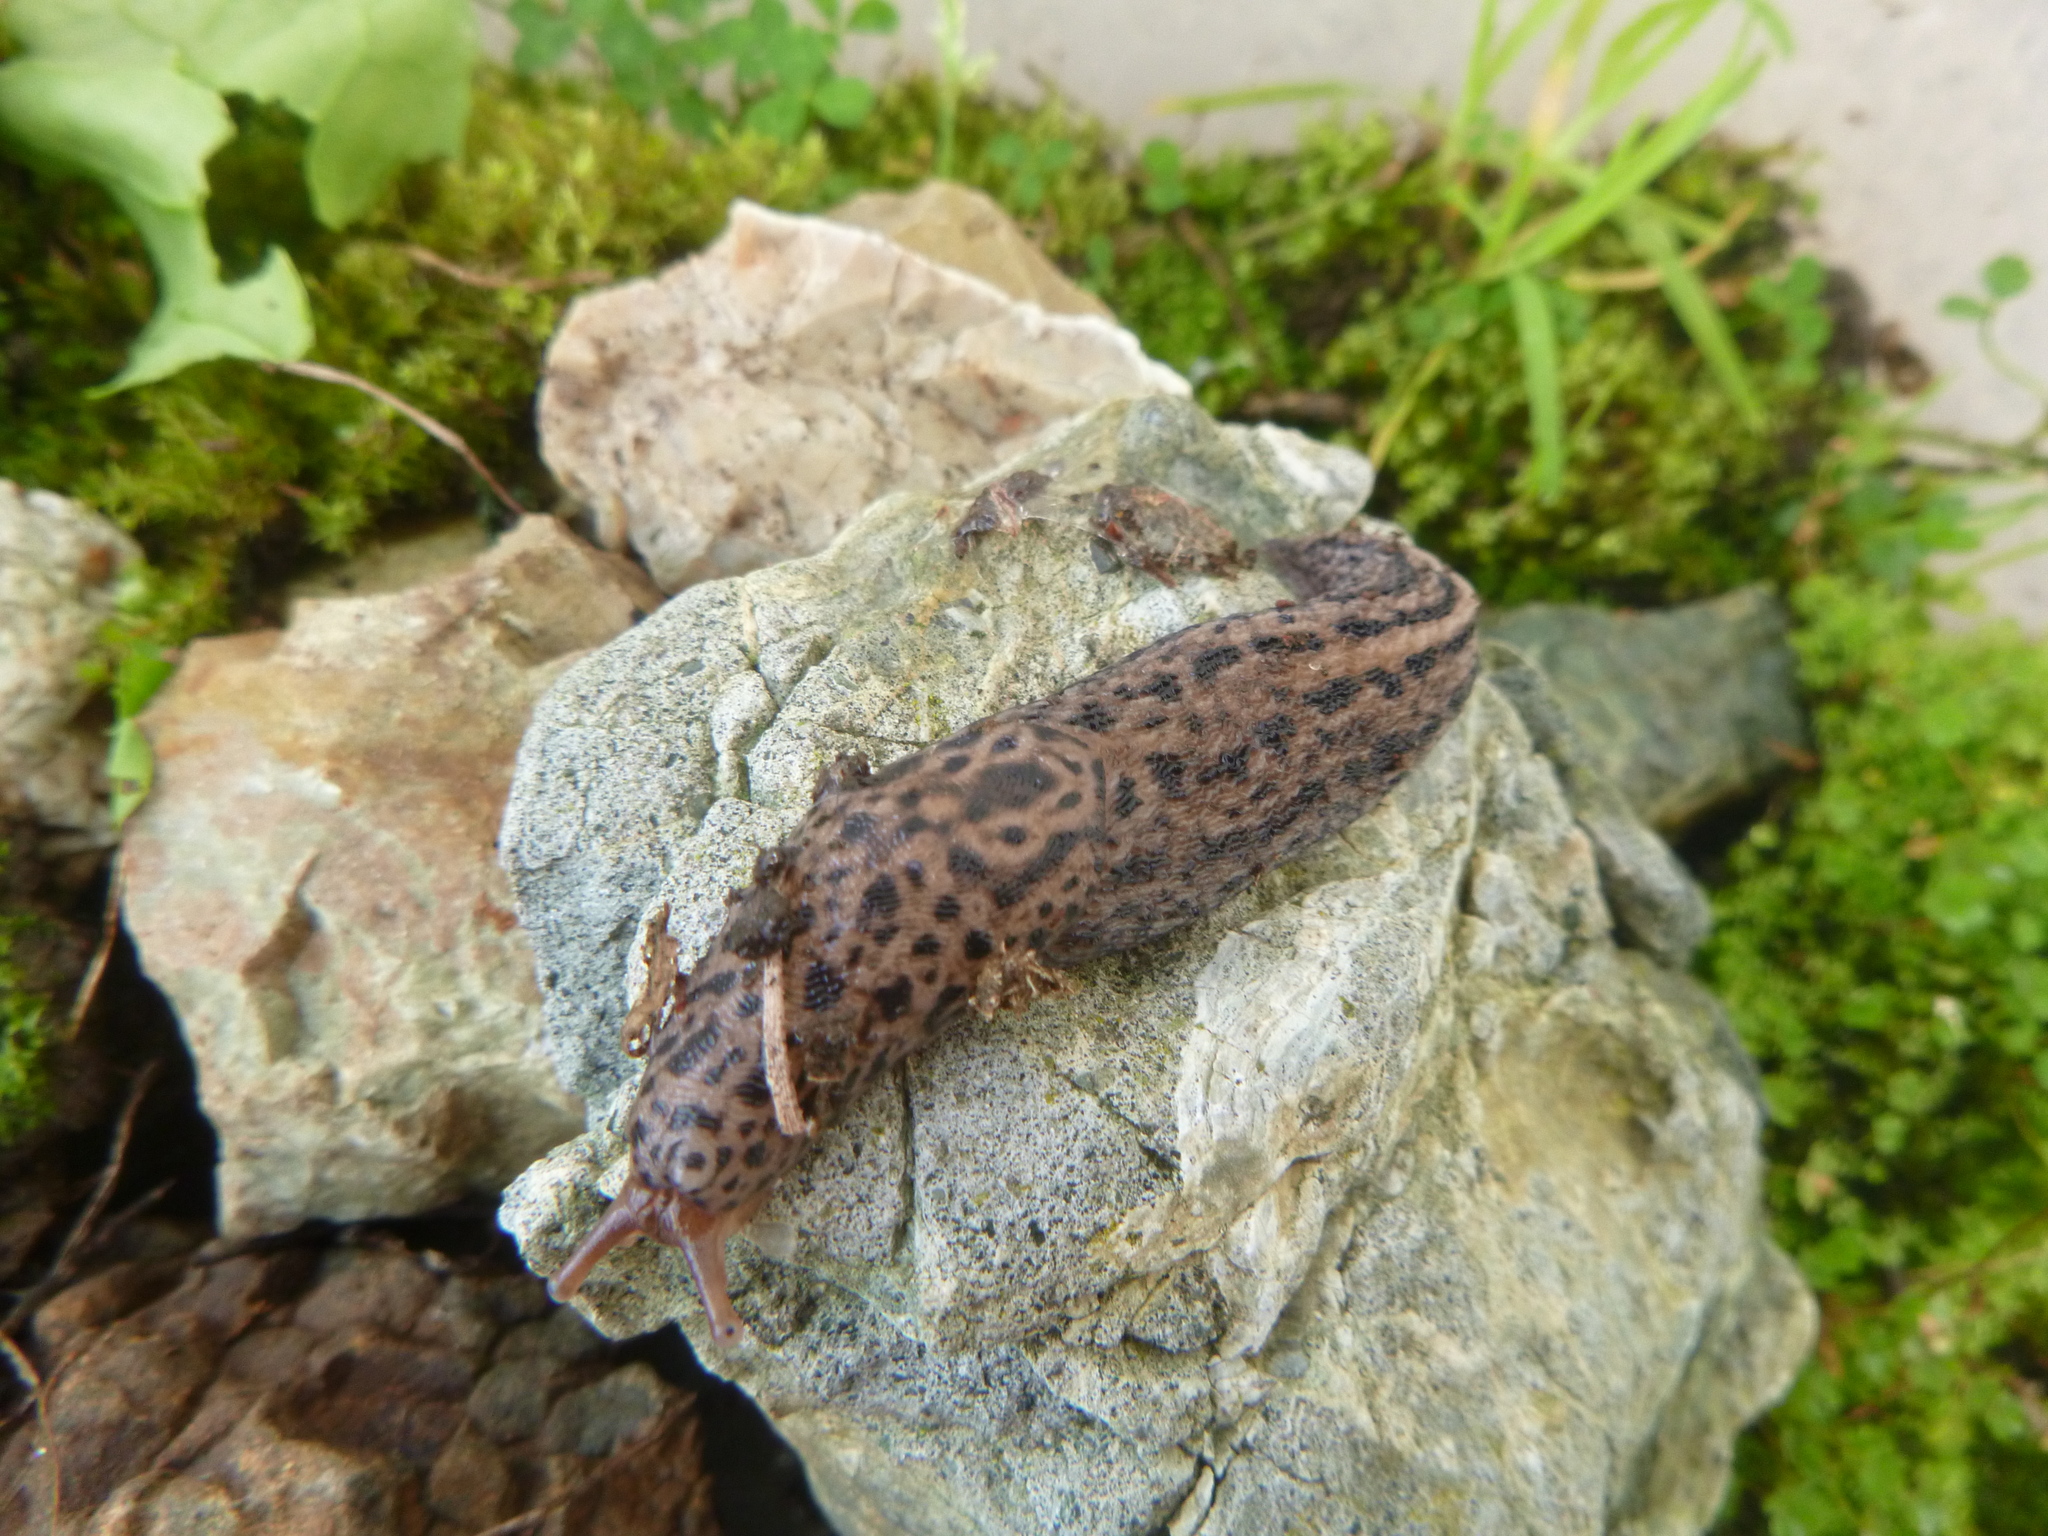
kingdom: Animalia
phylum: Mollusca
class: Gastropoda
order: Stylommatophora
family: Limacidae
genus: Limax
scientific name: Limax maximus
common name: Great grey slug
